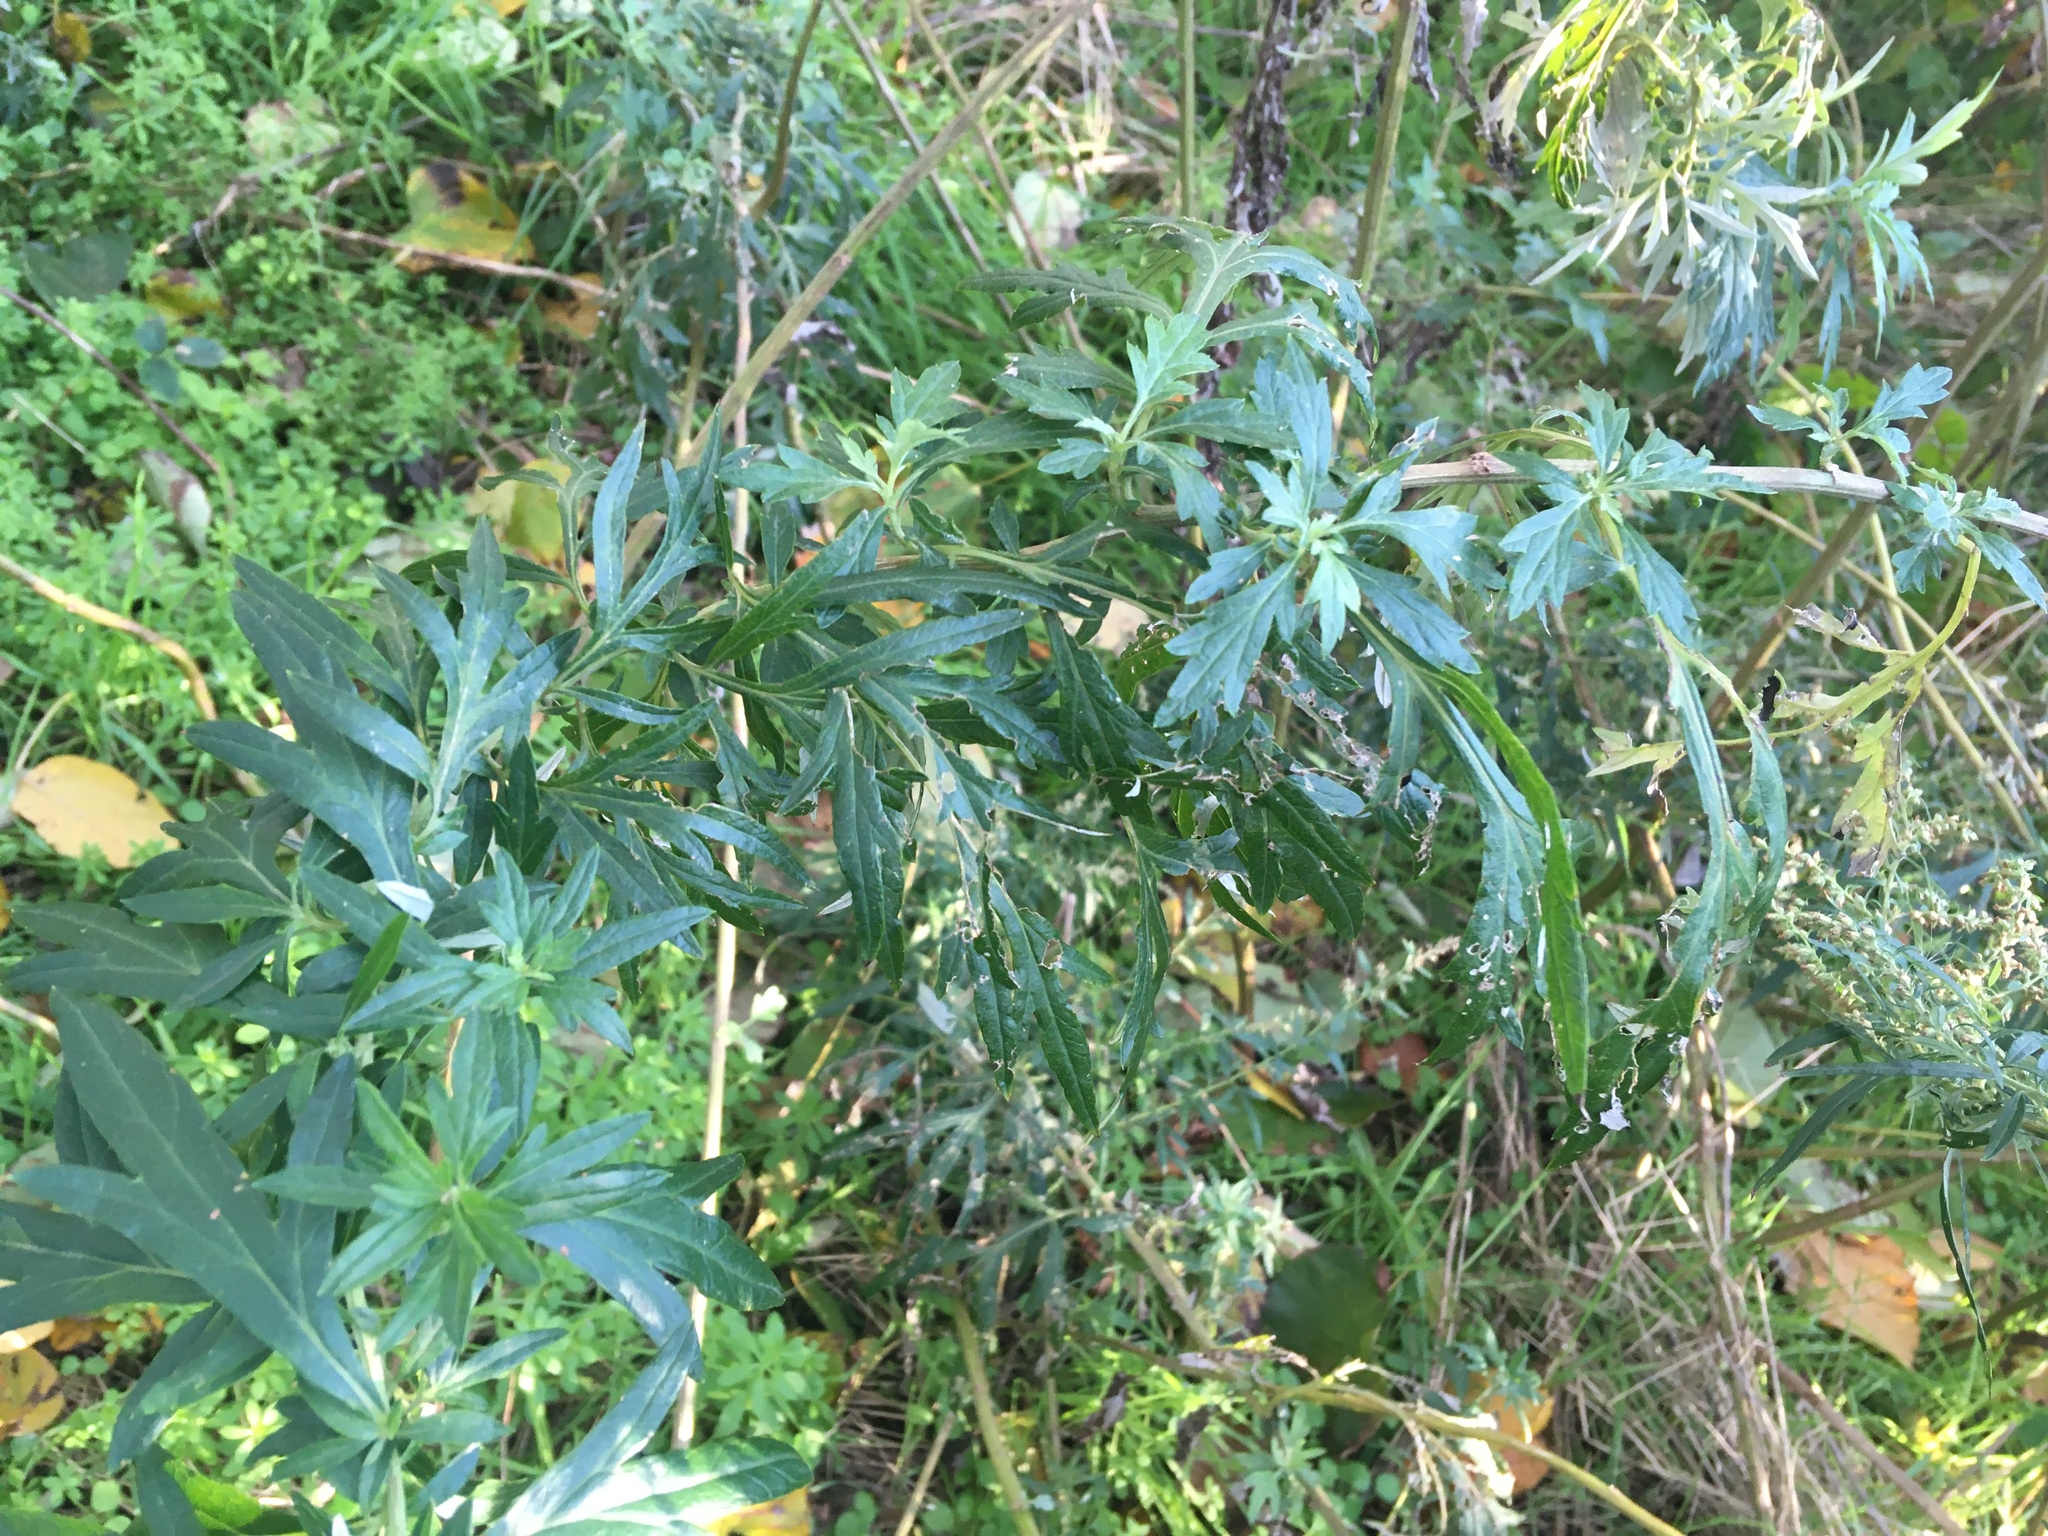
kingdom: Plantae
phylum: Tracheophyta
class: Magnoliopsida
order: Asterales
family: Asteraceae
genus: Artemisia
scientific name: Artemisia vulgaris
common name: Mugwort
